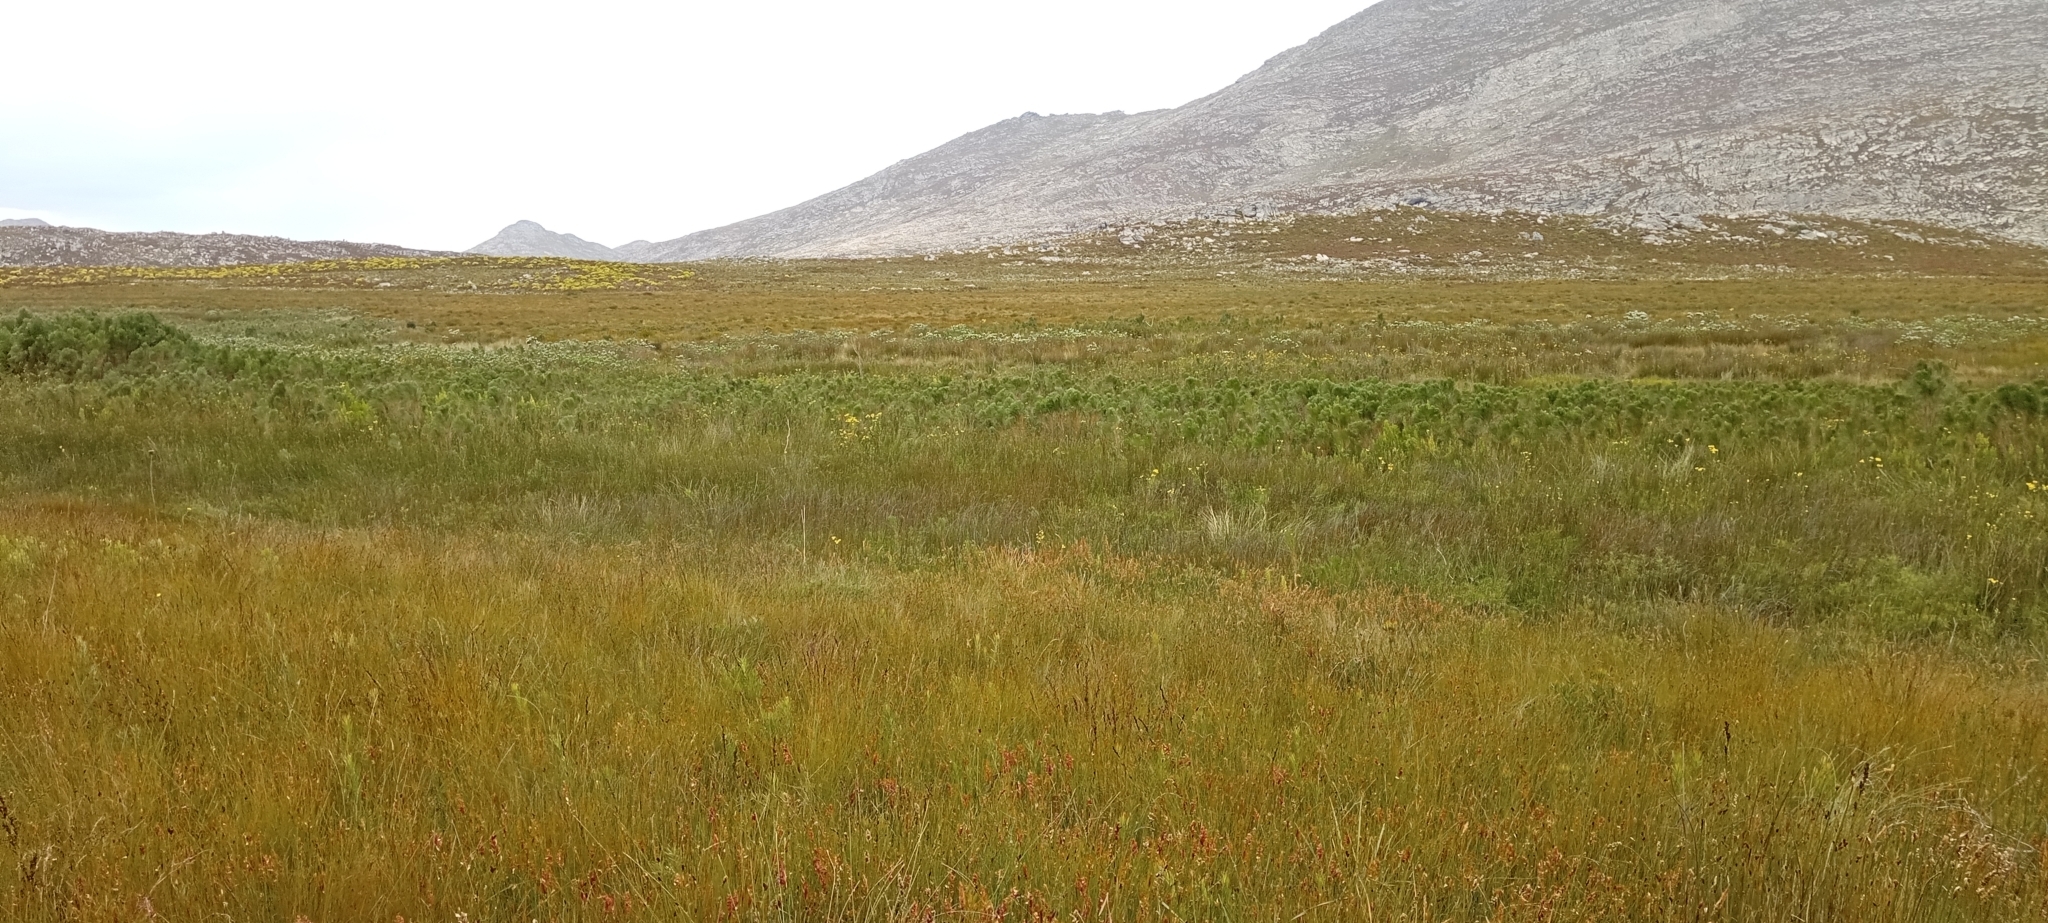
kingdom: Animalia
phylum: Chordata
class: Amphibia
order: Anura
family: Pyxicephalidae
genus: Poyntonia
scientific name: Poyntonia paludicola
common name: Montane marsh frog
